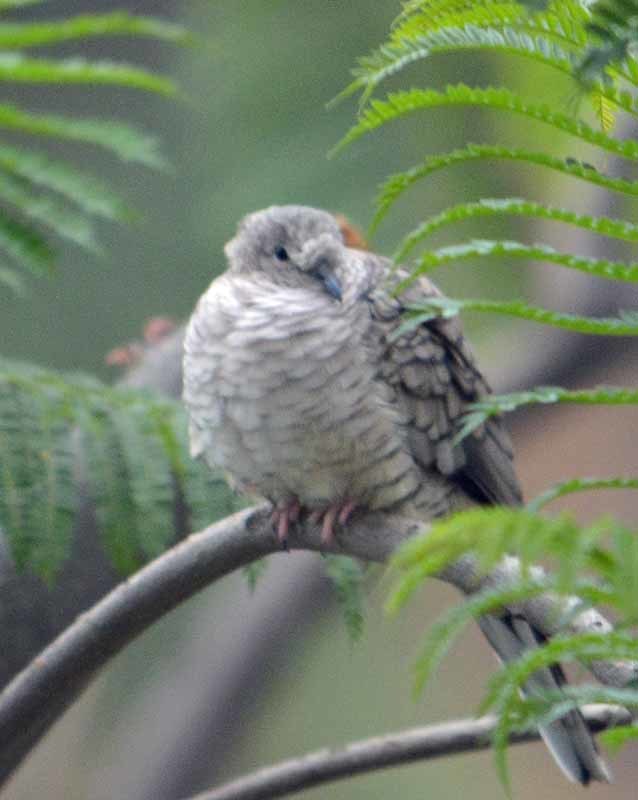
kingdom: Animalia
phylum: Chordata
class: Aves
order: Columbiformes
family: Columbidae
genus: Columbina
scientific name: Columbina inca
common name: Inca dove
